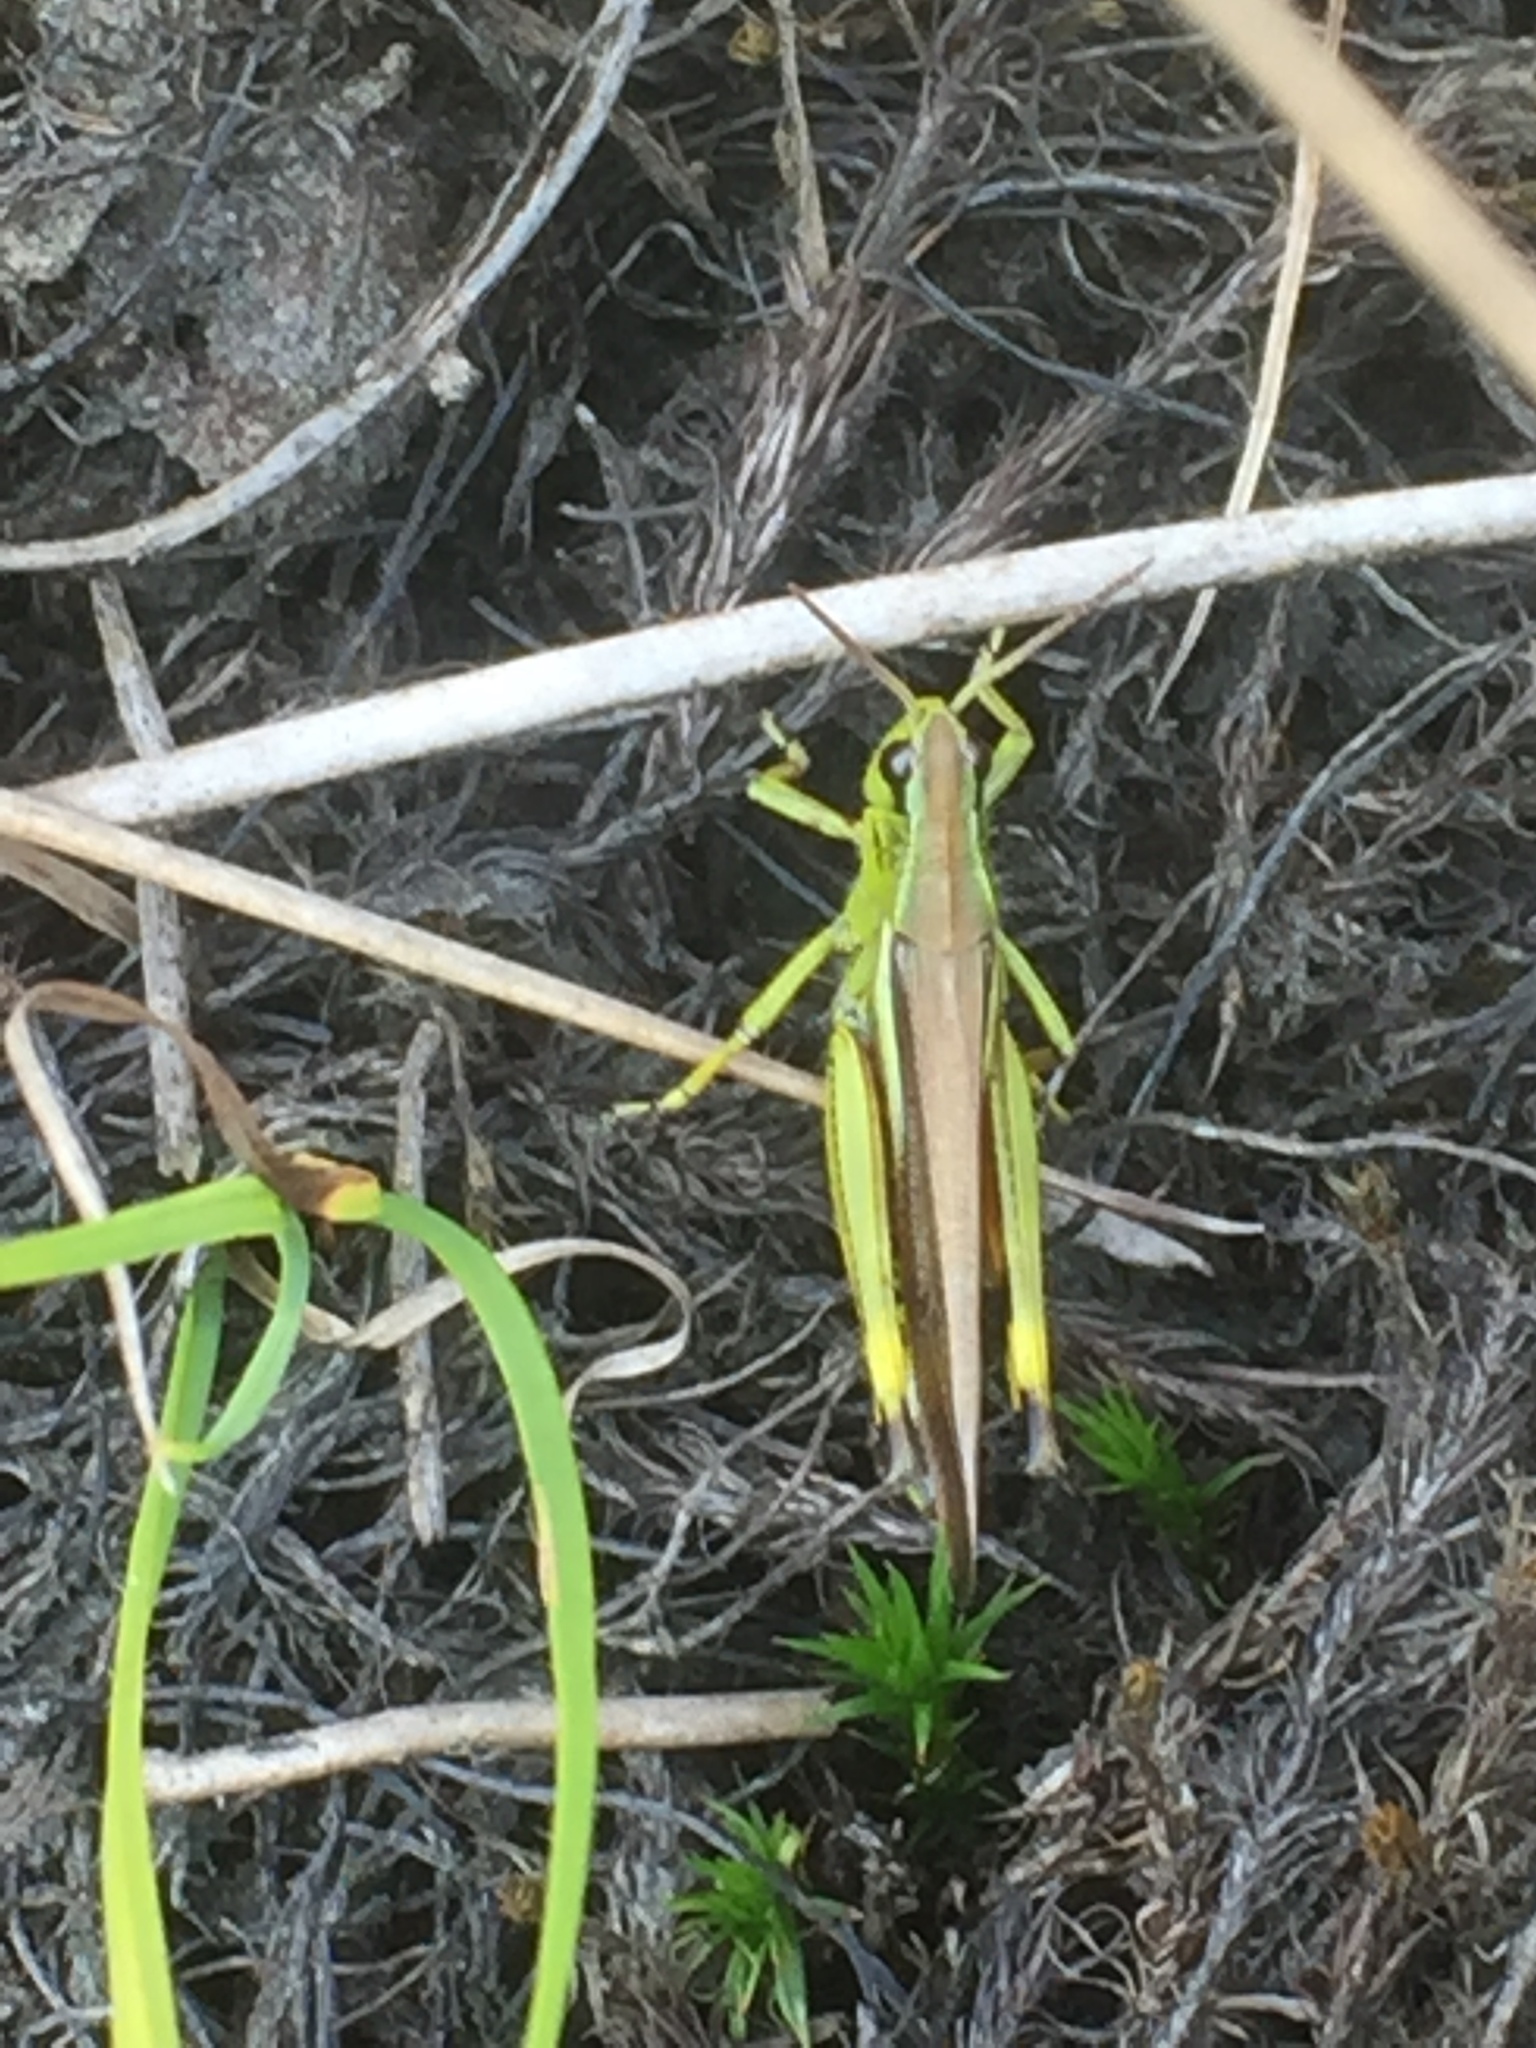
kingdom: Animalia
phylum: Arthropoda
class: Insecta
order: Orthoptera
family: Acrididae
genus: Stethophyma
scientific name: Stethophyma grossum
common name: Large marsh grasshopper
